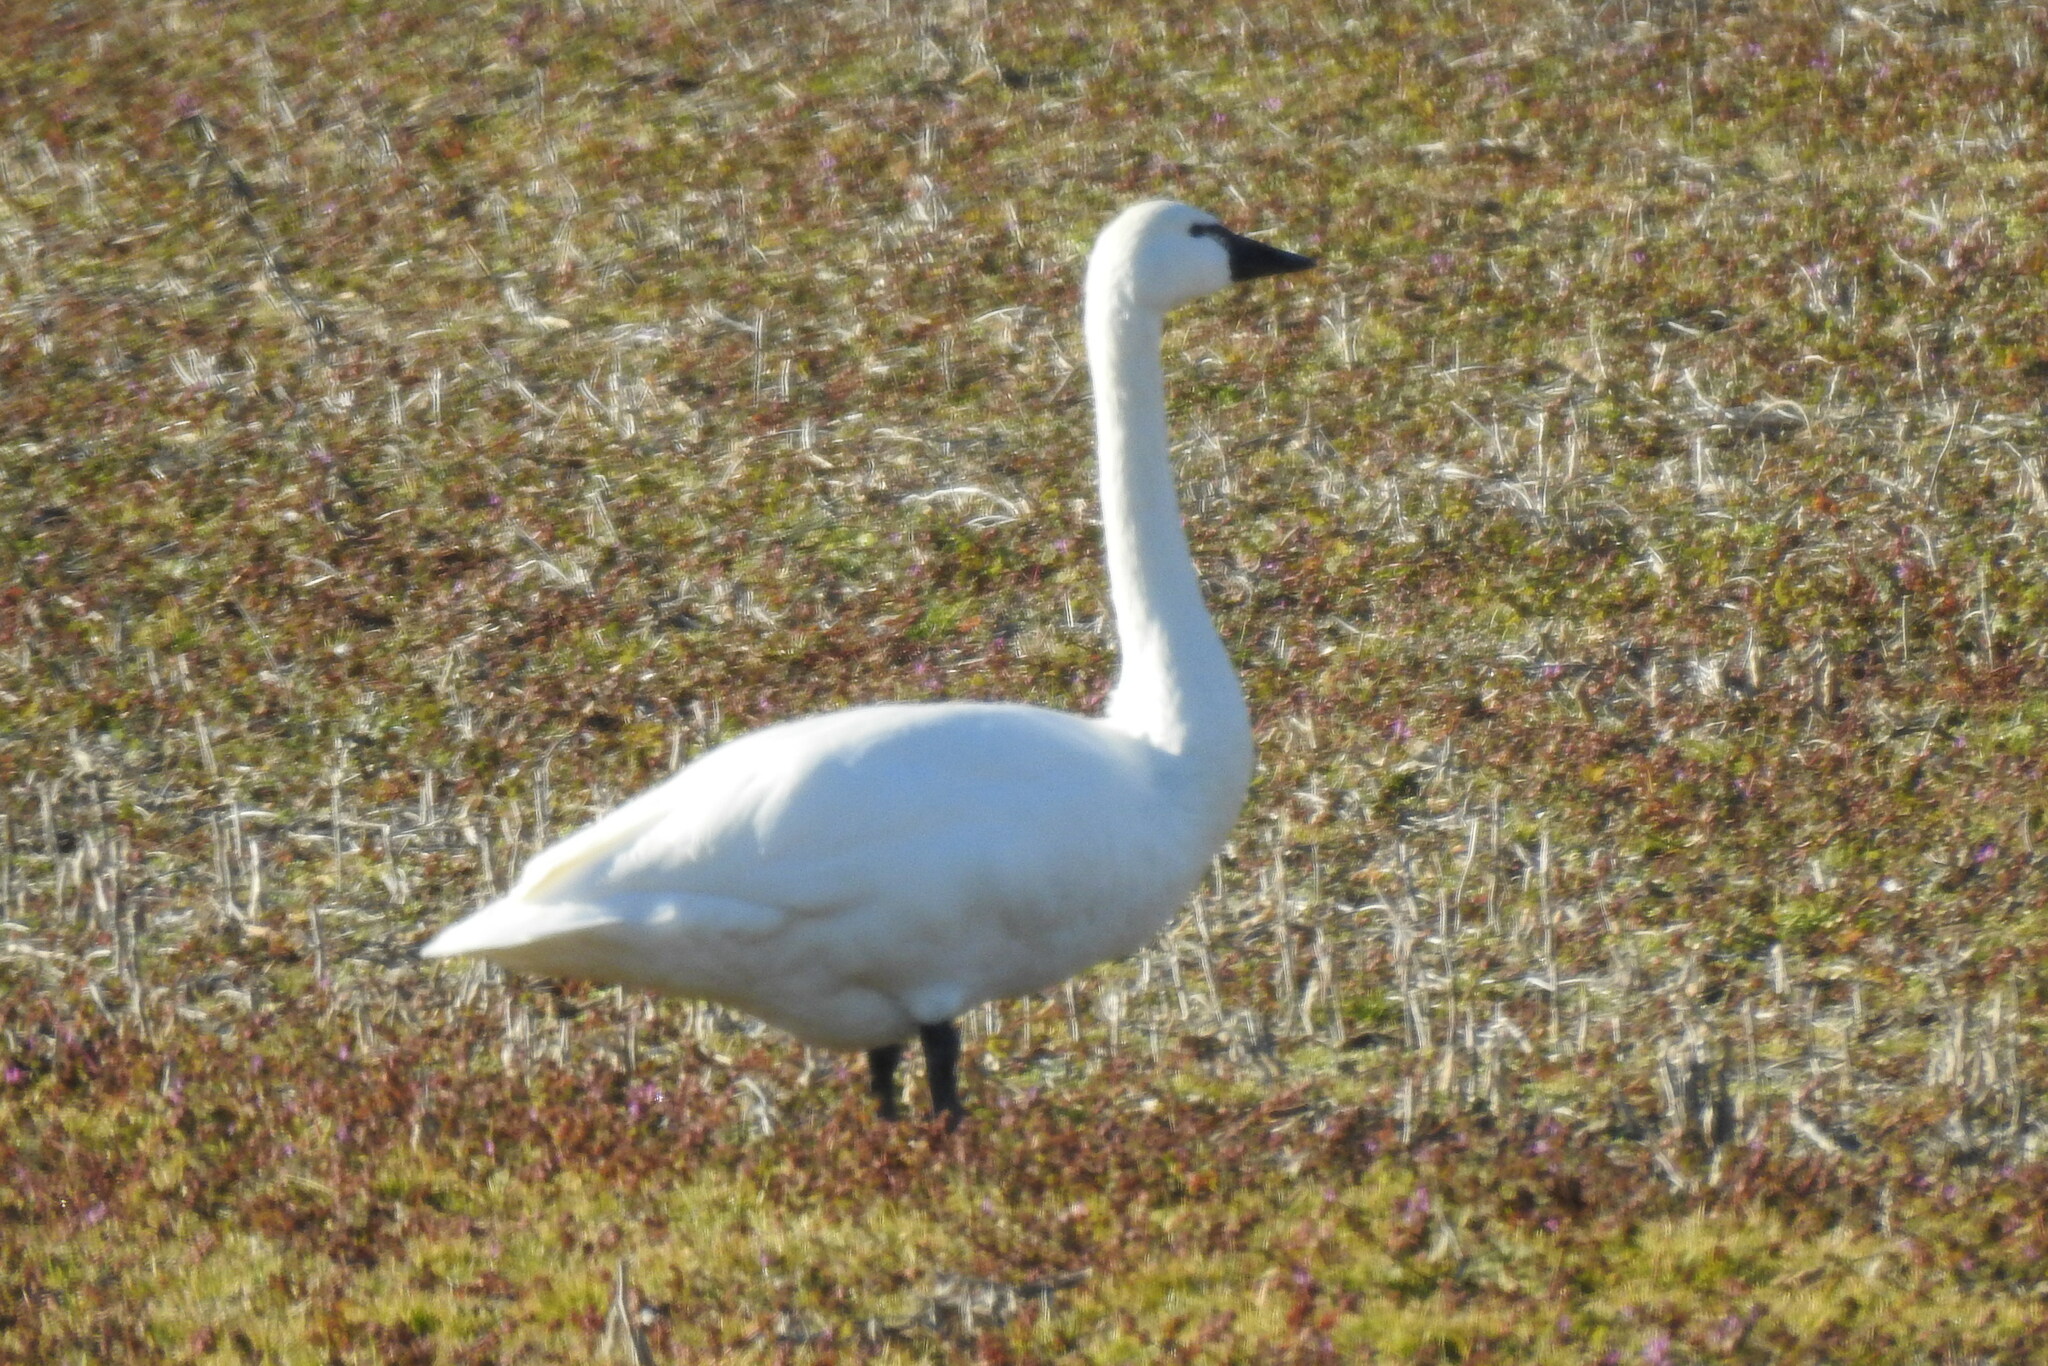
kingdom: Animalia
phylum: Chordata
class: Aves
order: Anseriformes
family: Anatidae
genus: Cygnus
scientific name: Cygnus columbianus
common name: Tundra swan
